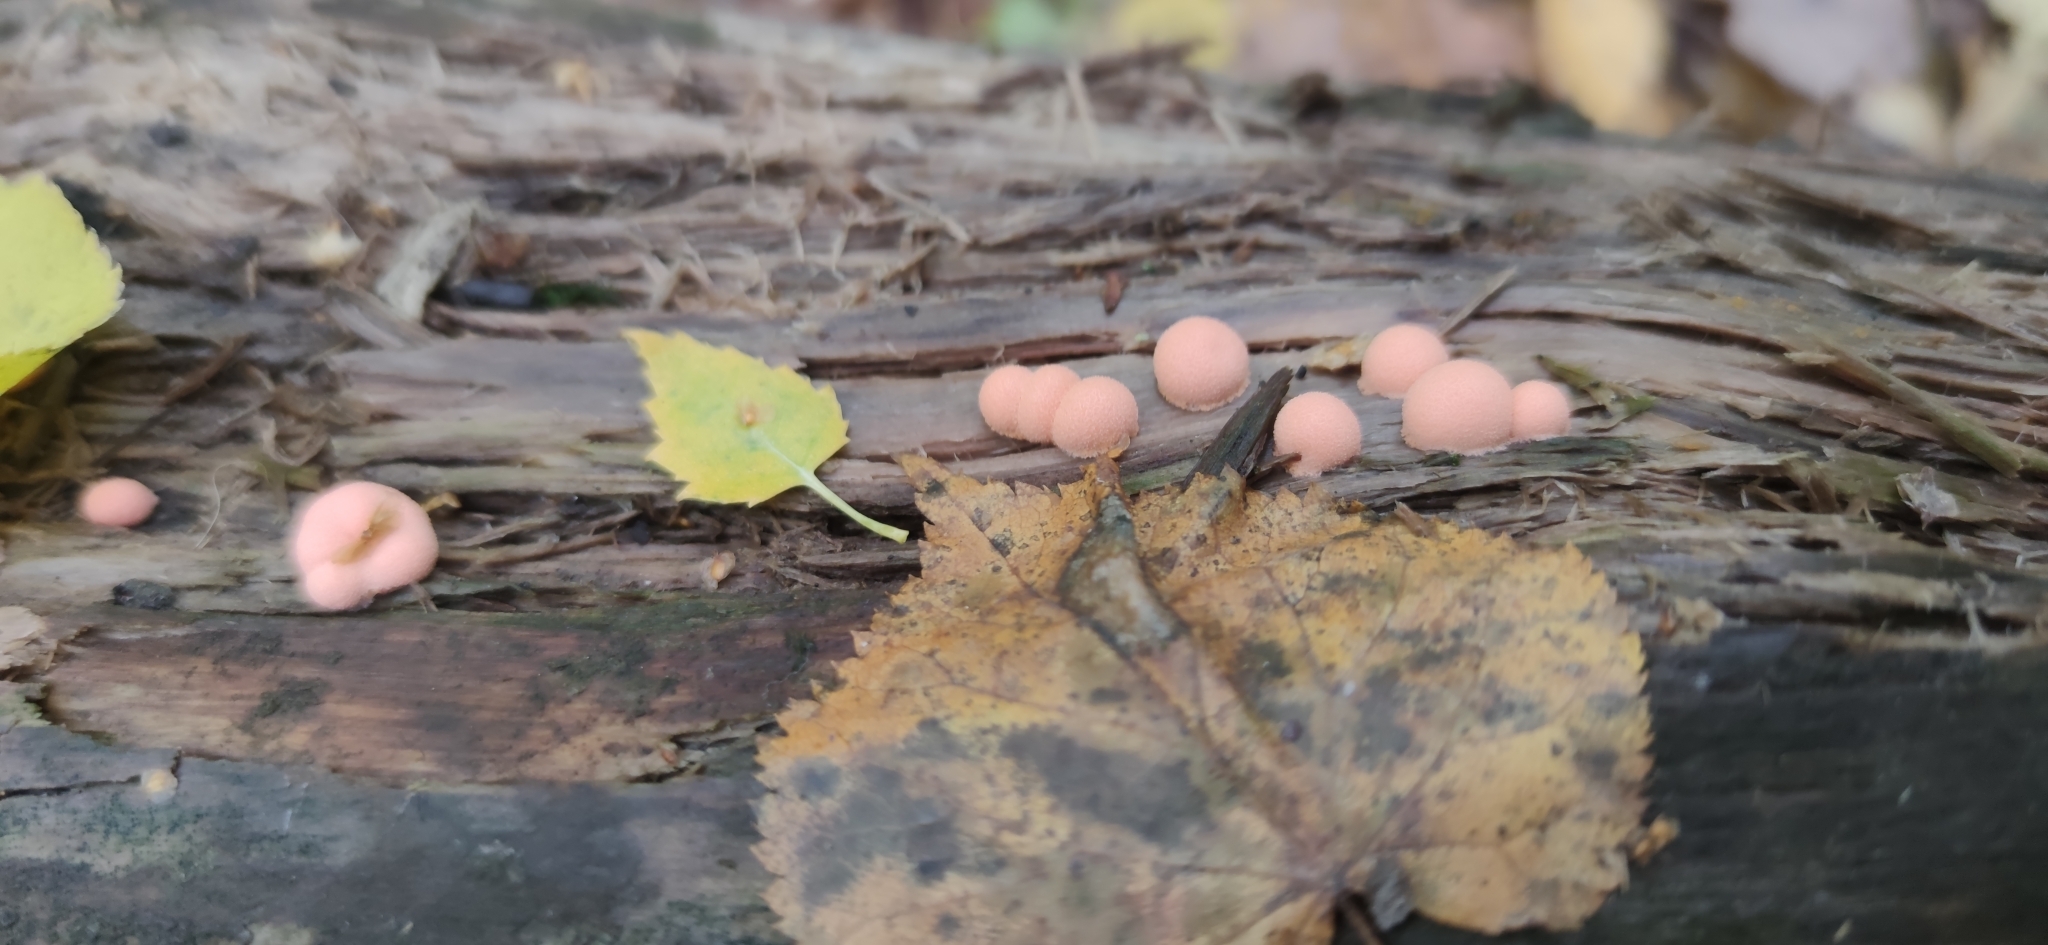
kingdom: Protozoa
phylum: Mycetozoa
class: Myxomycetes
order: Cribrariales
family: Tubiferaceae
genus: Lycogala
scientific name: Lycogala epidendrum
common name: Wolf's milk
